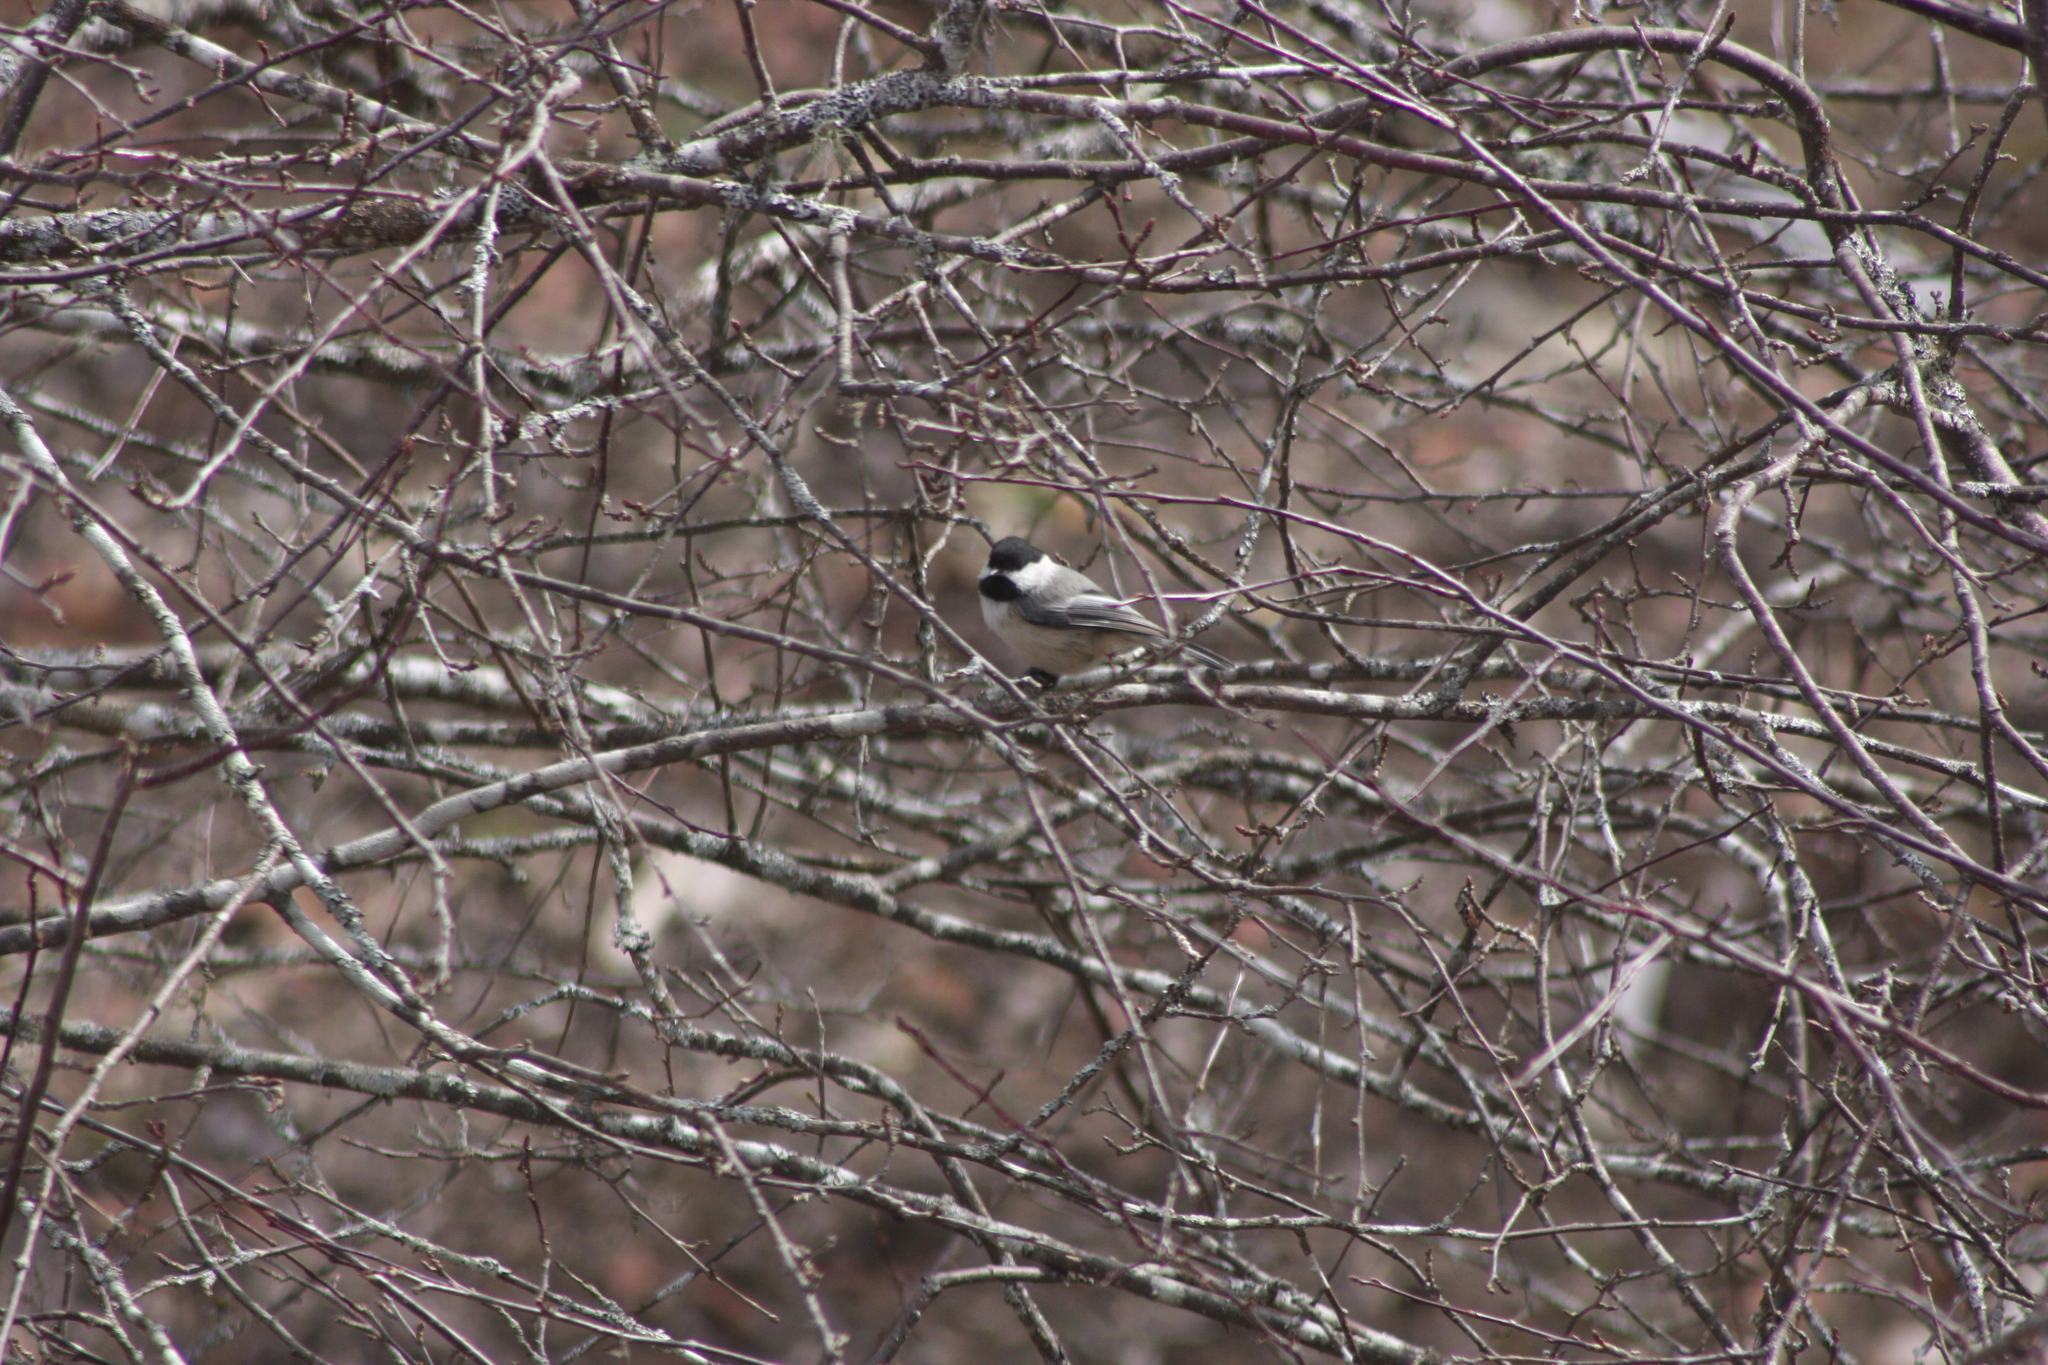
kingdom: Animalia
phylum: Chordata
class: Aves
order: Passeriformes
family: Paridae
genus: Poecile
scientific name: Poecile atricapillus
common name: Black-capped chickadee
